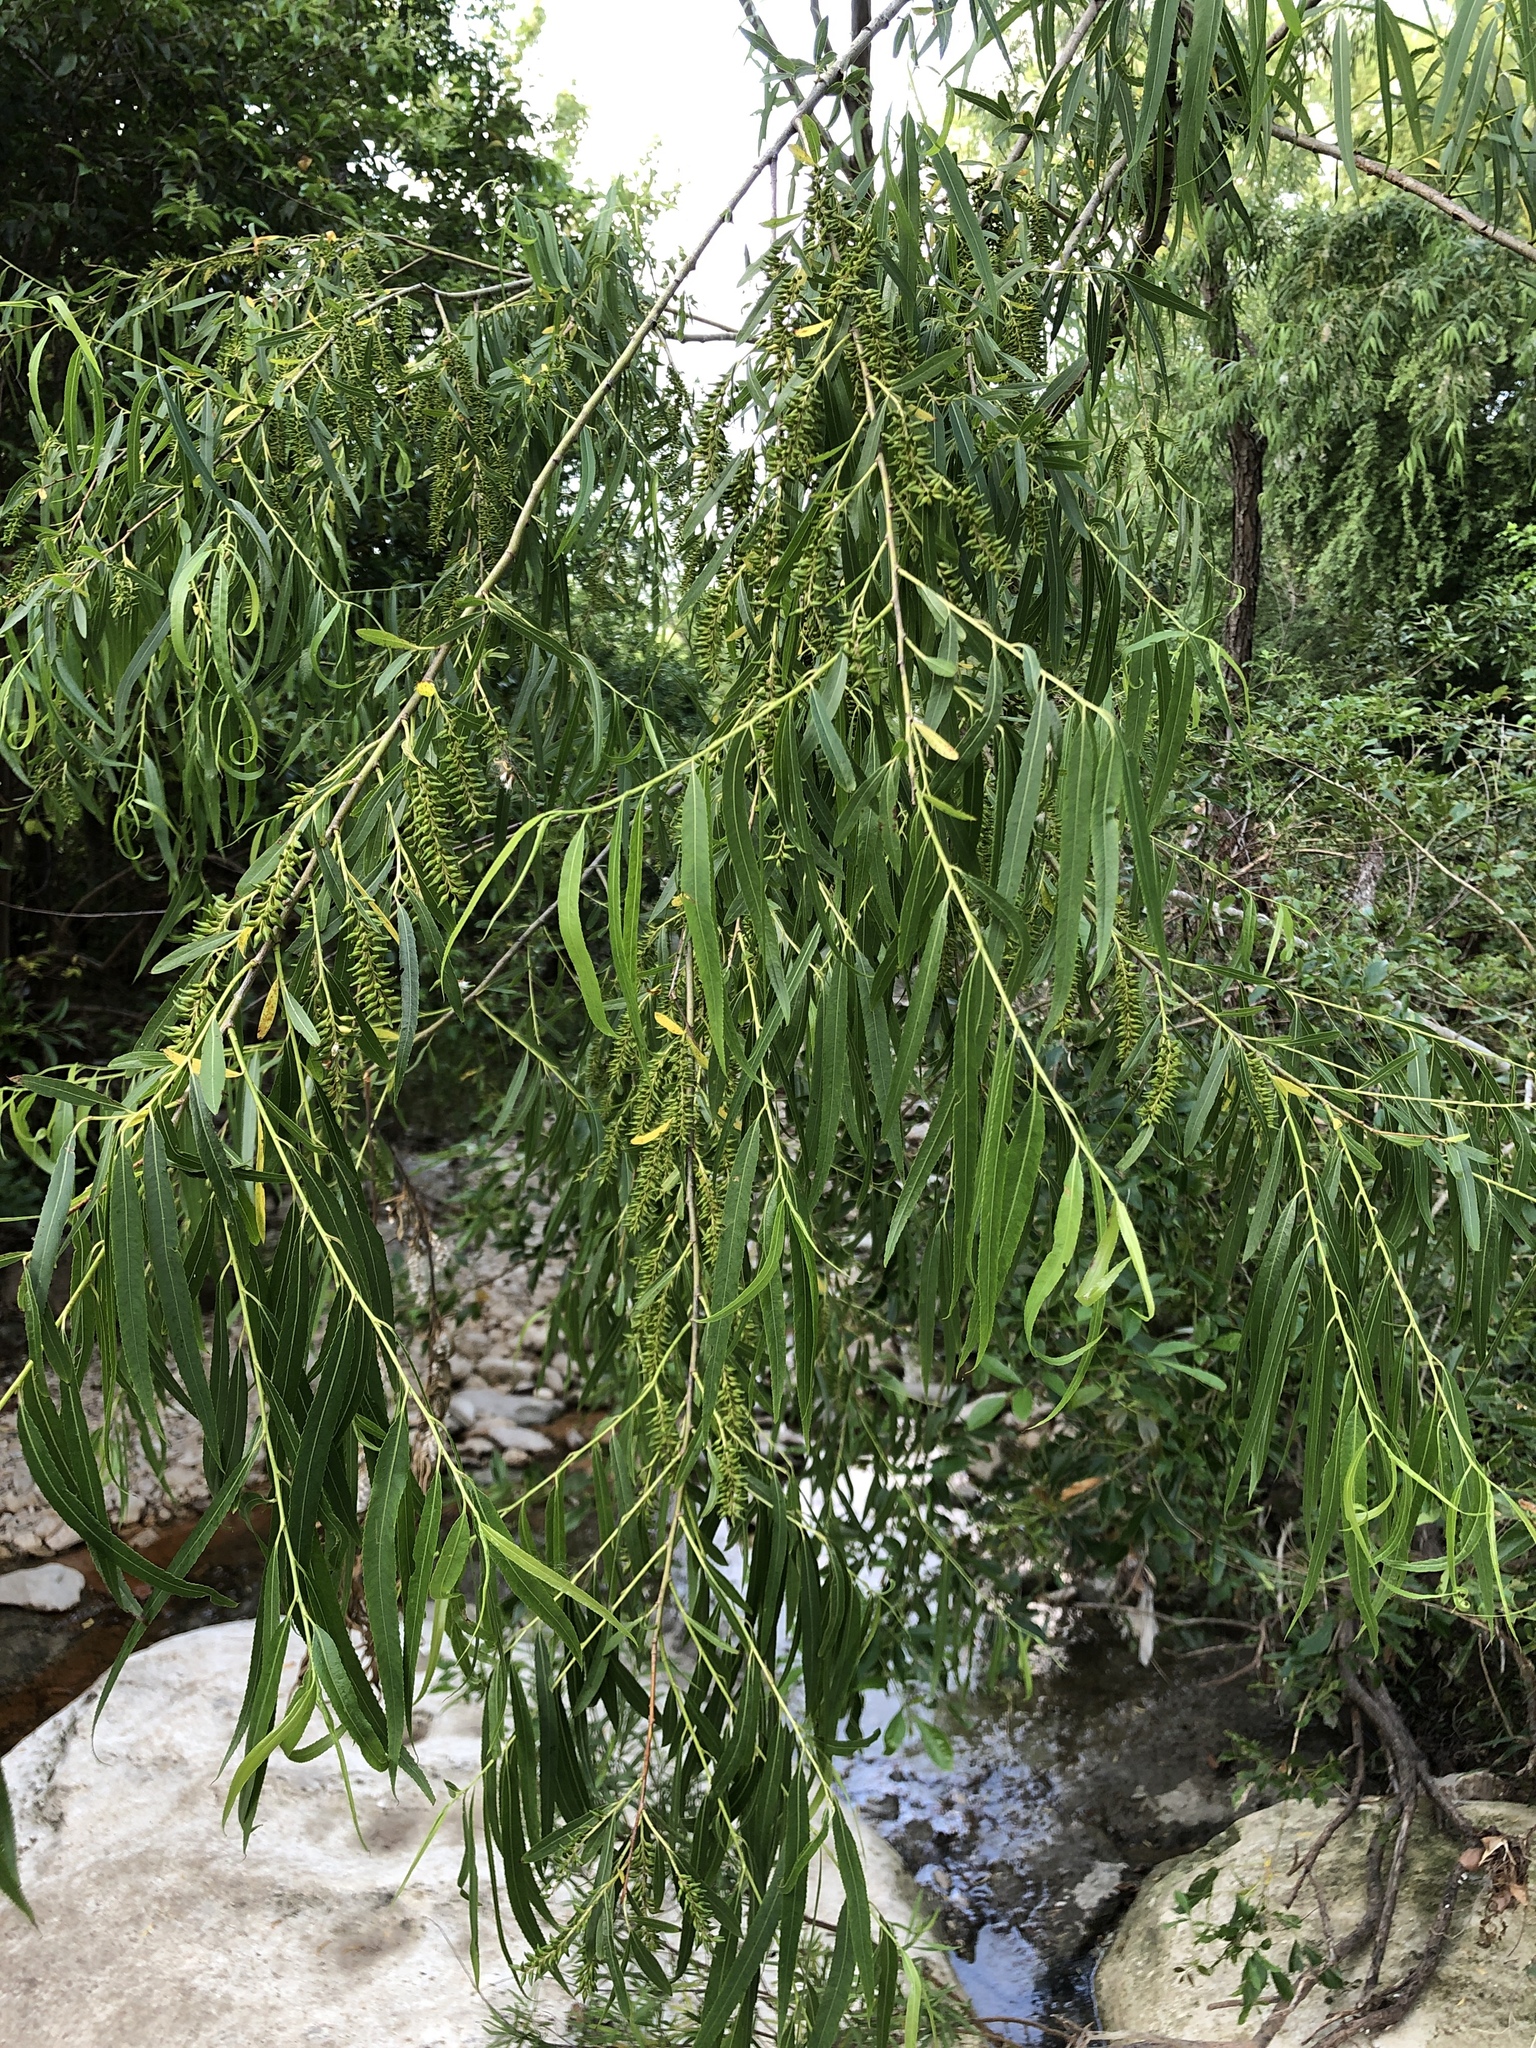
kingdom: Plantae
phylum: Tracheophyta
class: Magnoliopsida
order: Malpighiales
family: Salicaceae
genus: Salix
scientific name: Salix nigra
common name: Black willow
